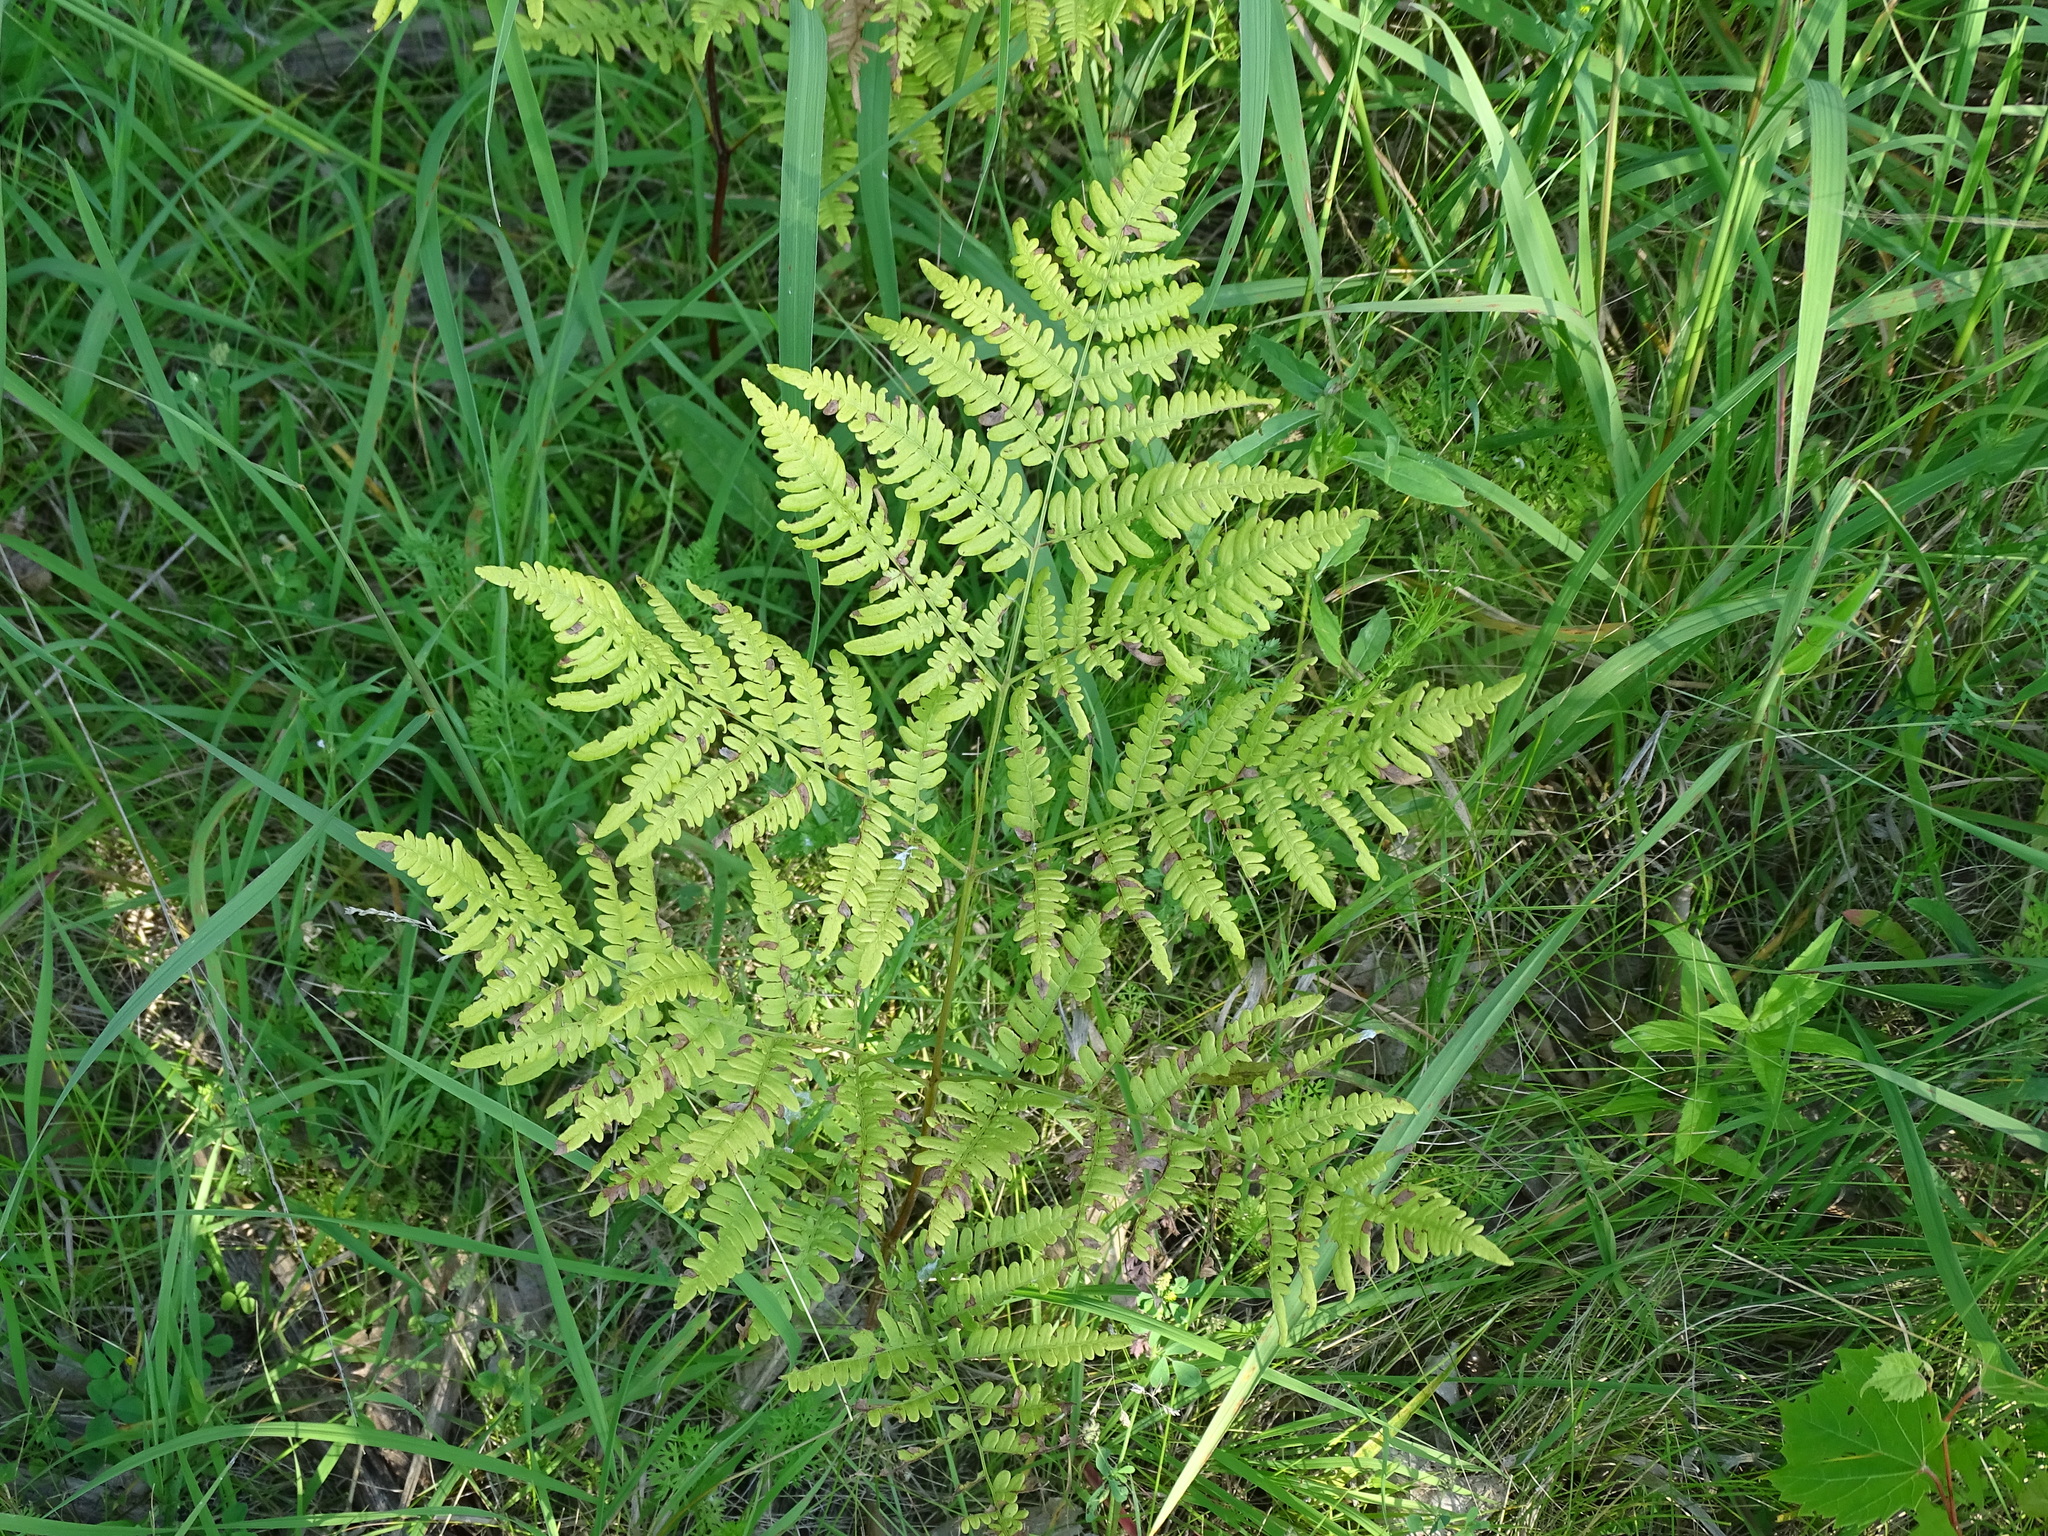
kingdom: Plantae
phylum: Tracheophyta
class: Polypodiopsida
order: Polypodiales
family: Dennstaedtiaceae
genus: Pteridium
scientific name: Pteridium aquilinum
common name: Bracken
